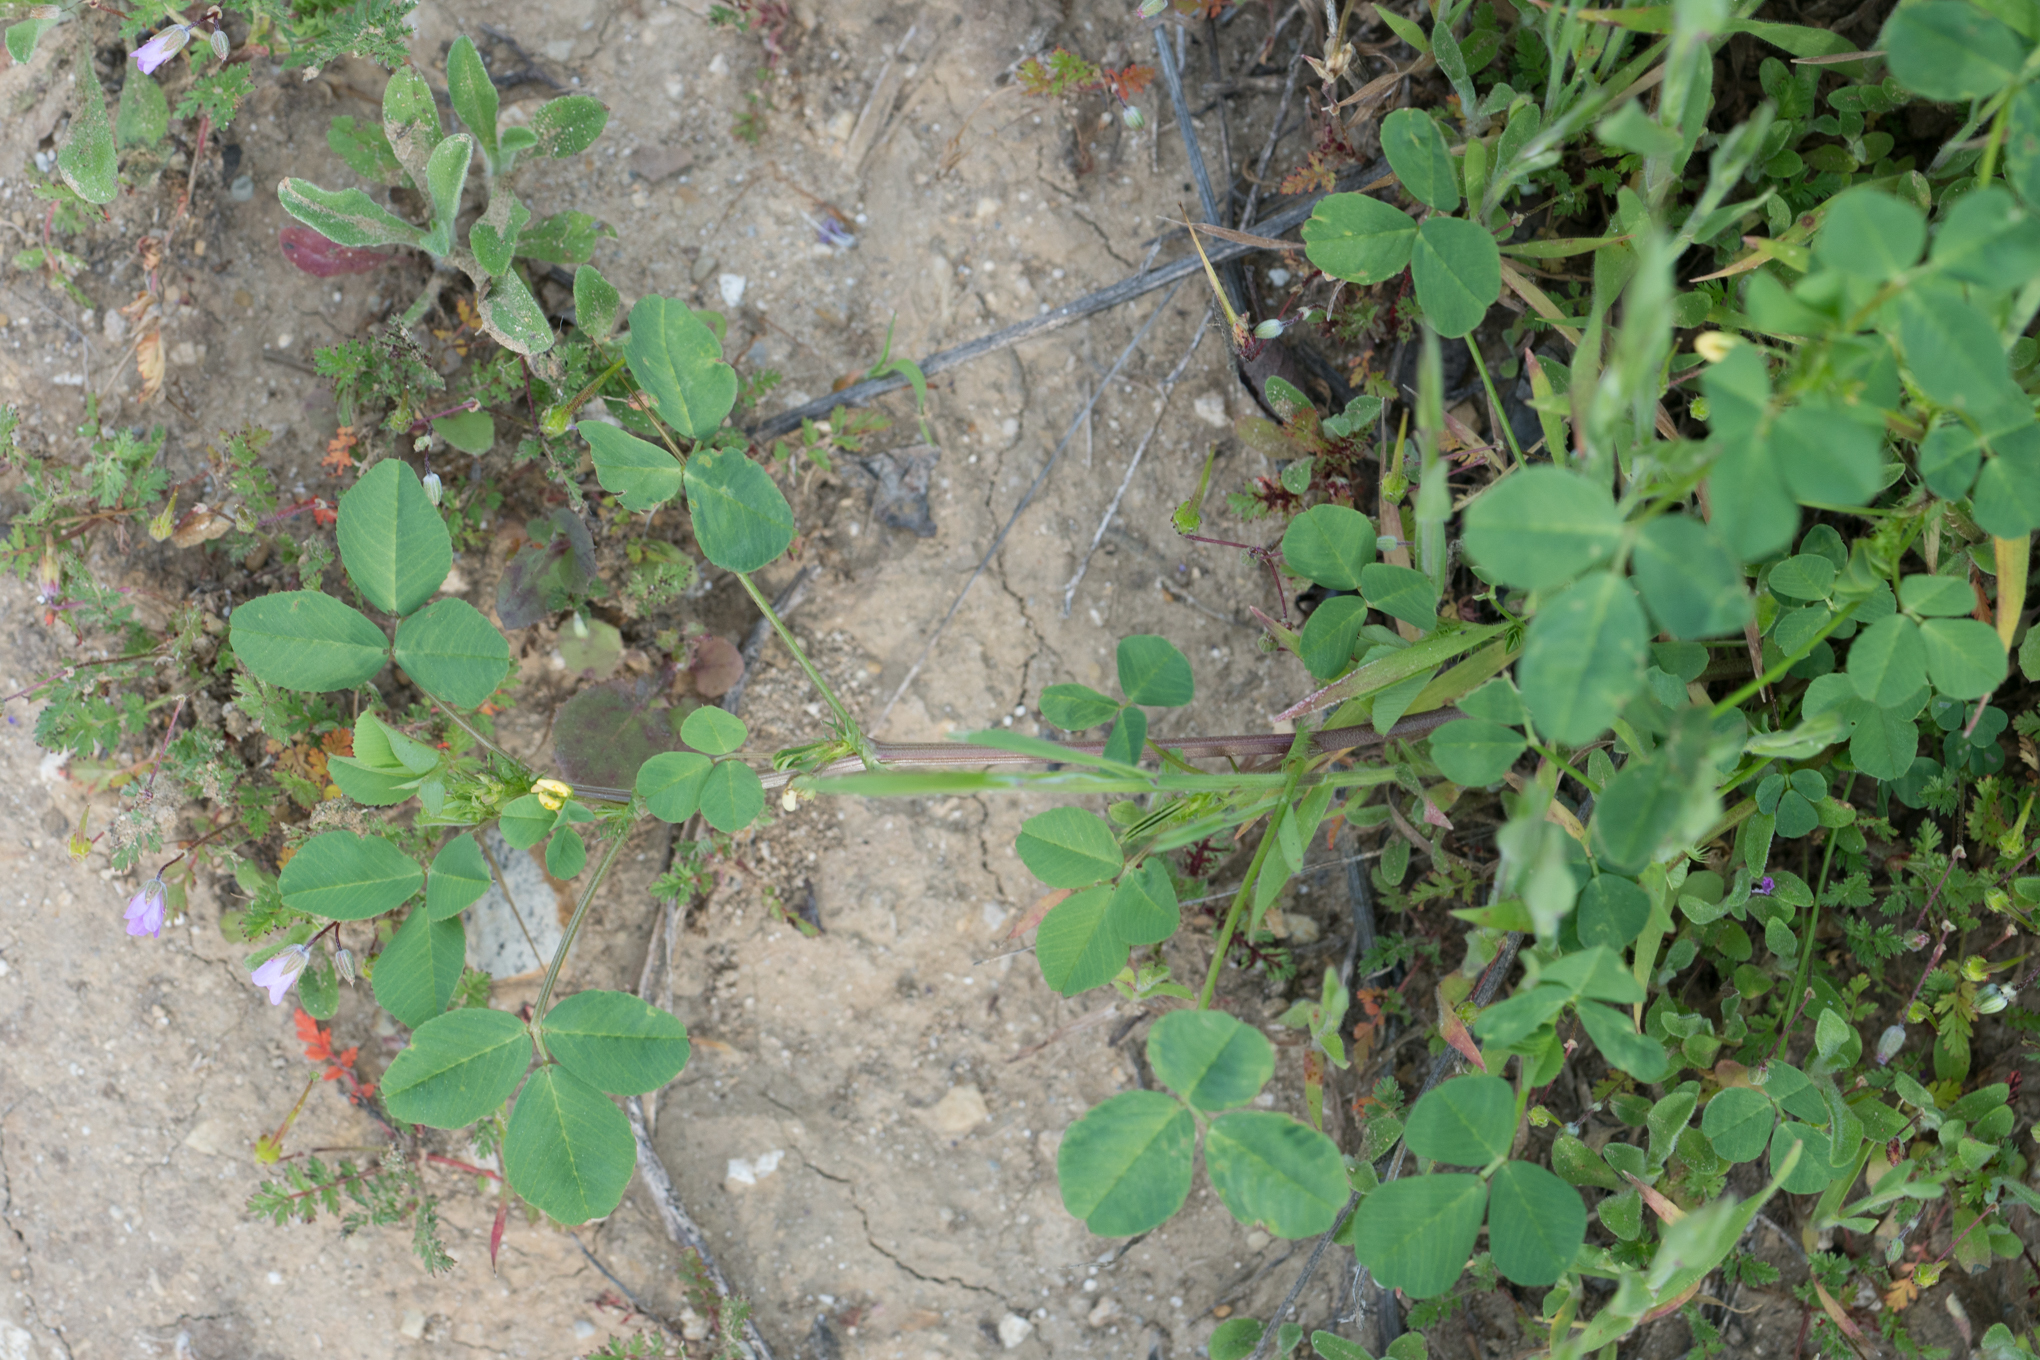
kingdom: Plantae
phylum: Tracheophyta
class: Magnoliopsida
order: Fabales
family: Fabaceae
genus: Medicago
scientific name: Medicago polymorpha
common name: Burclover
